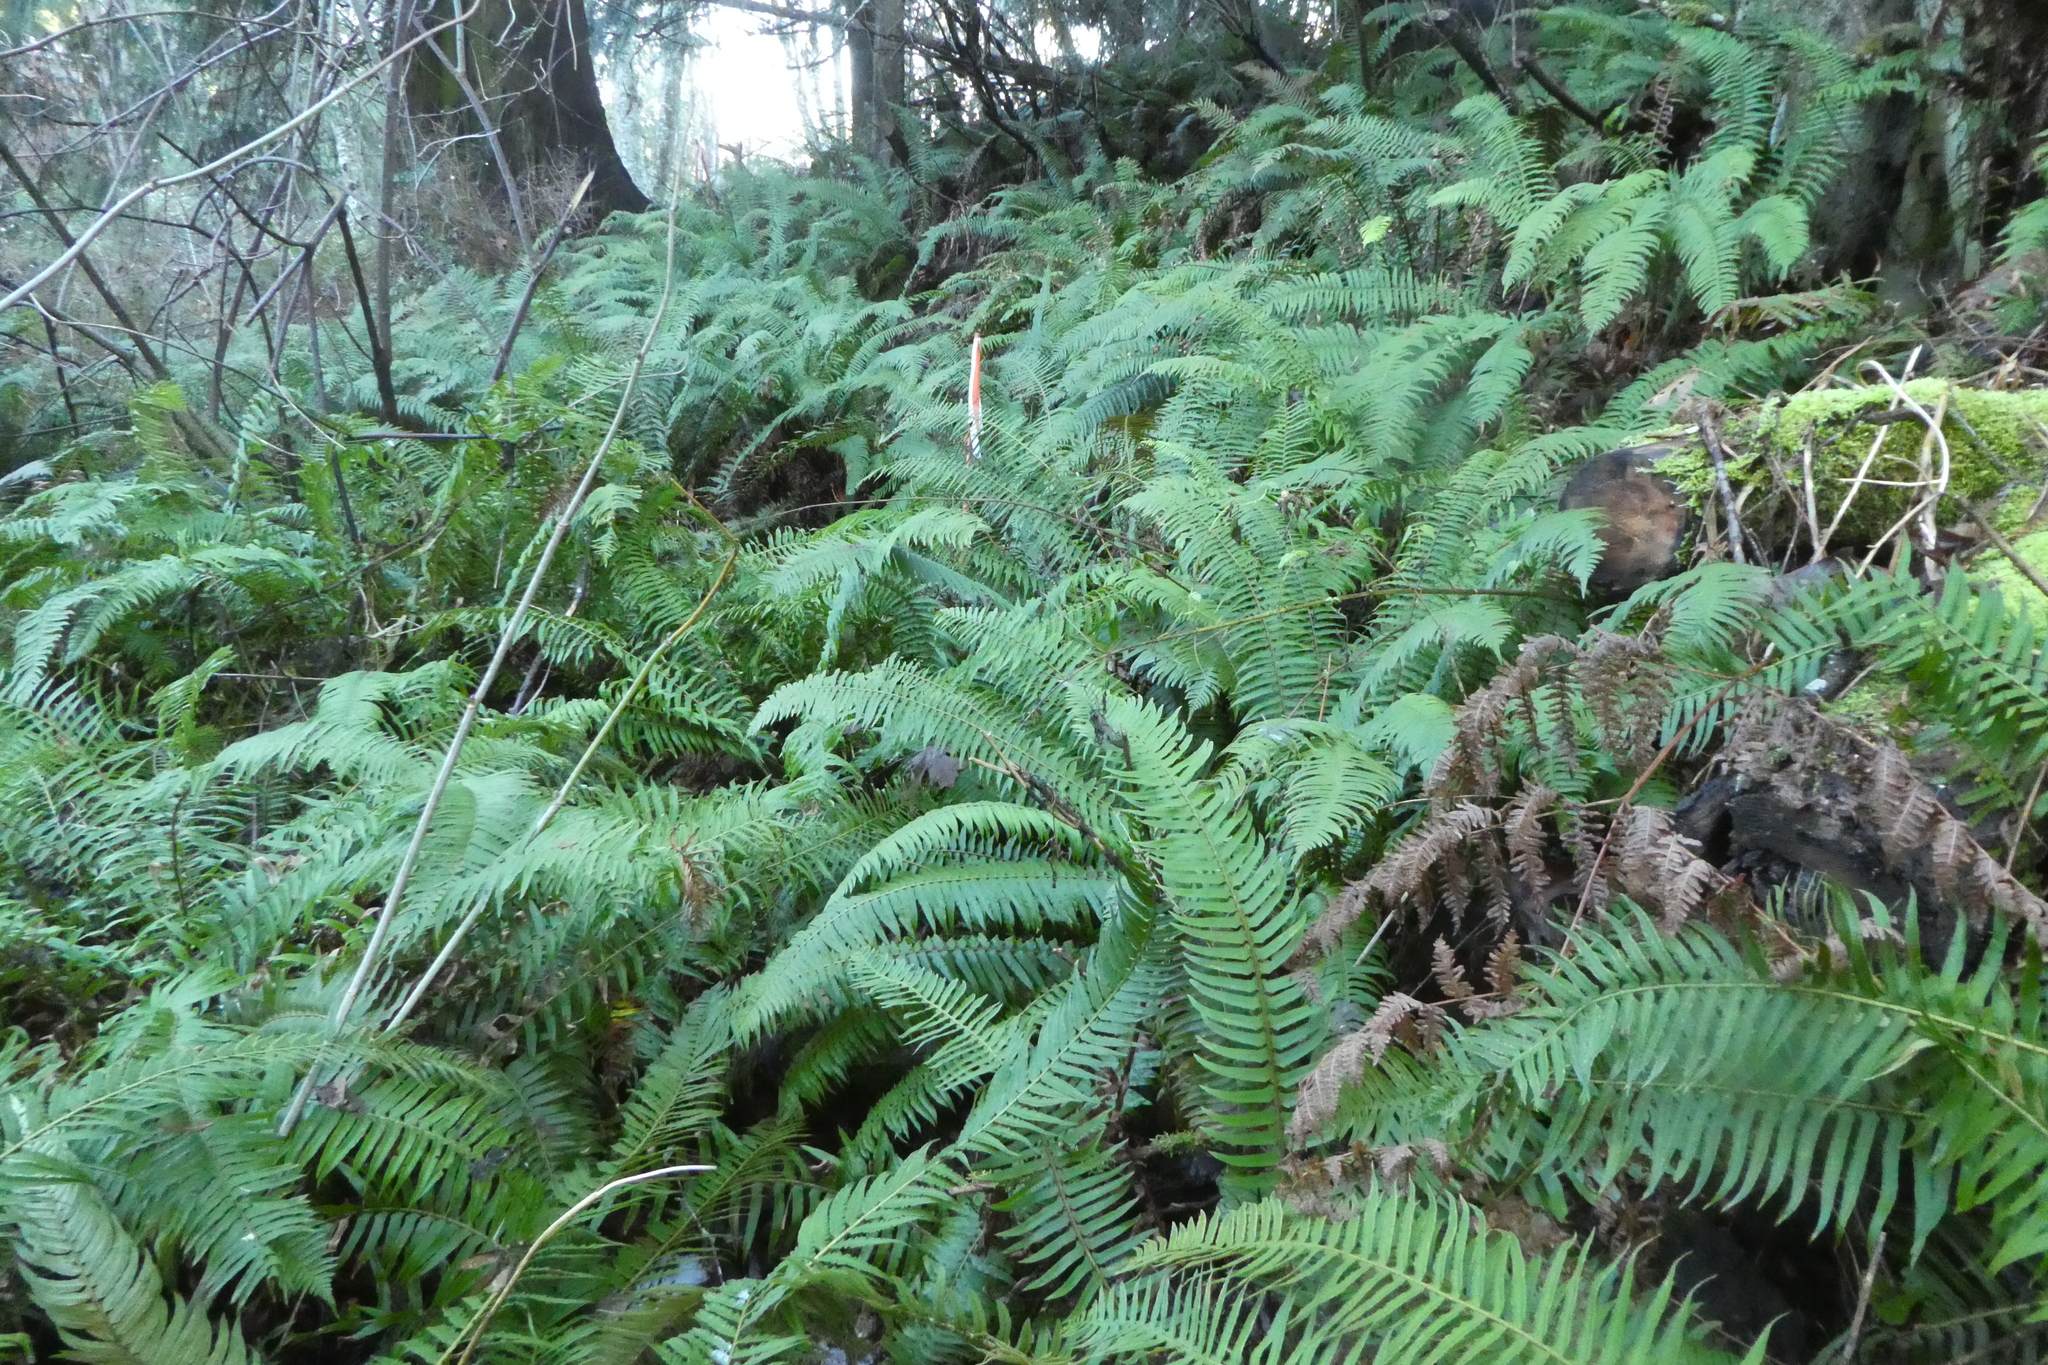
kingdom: Plantae
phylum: Tracheophyta
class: Polypodiopsida
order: Polypodiales
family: Dryopteridaceae
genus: Polystichum
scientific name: Polystichum munitum
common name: Western sword-fern
